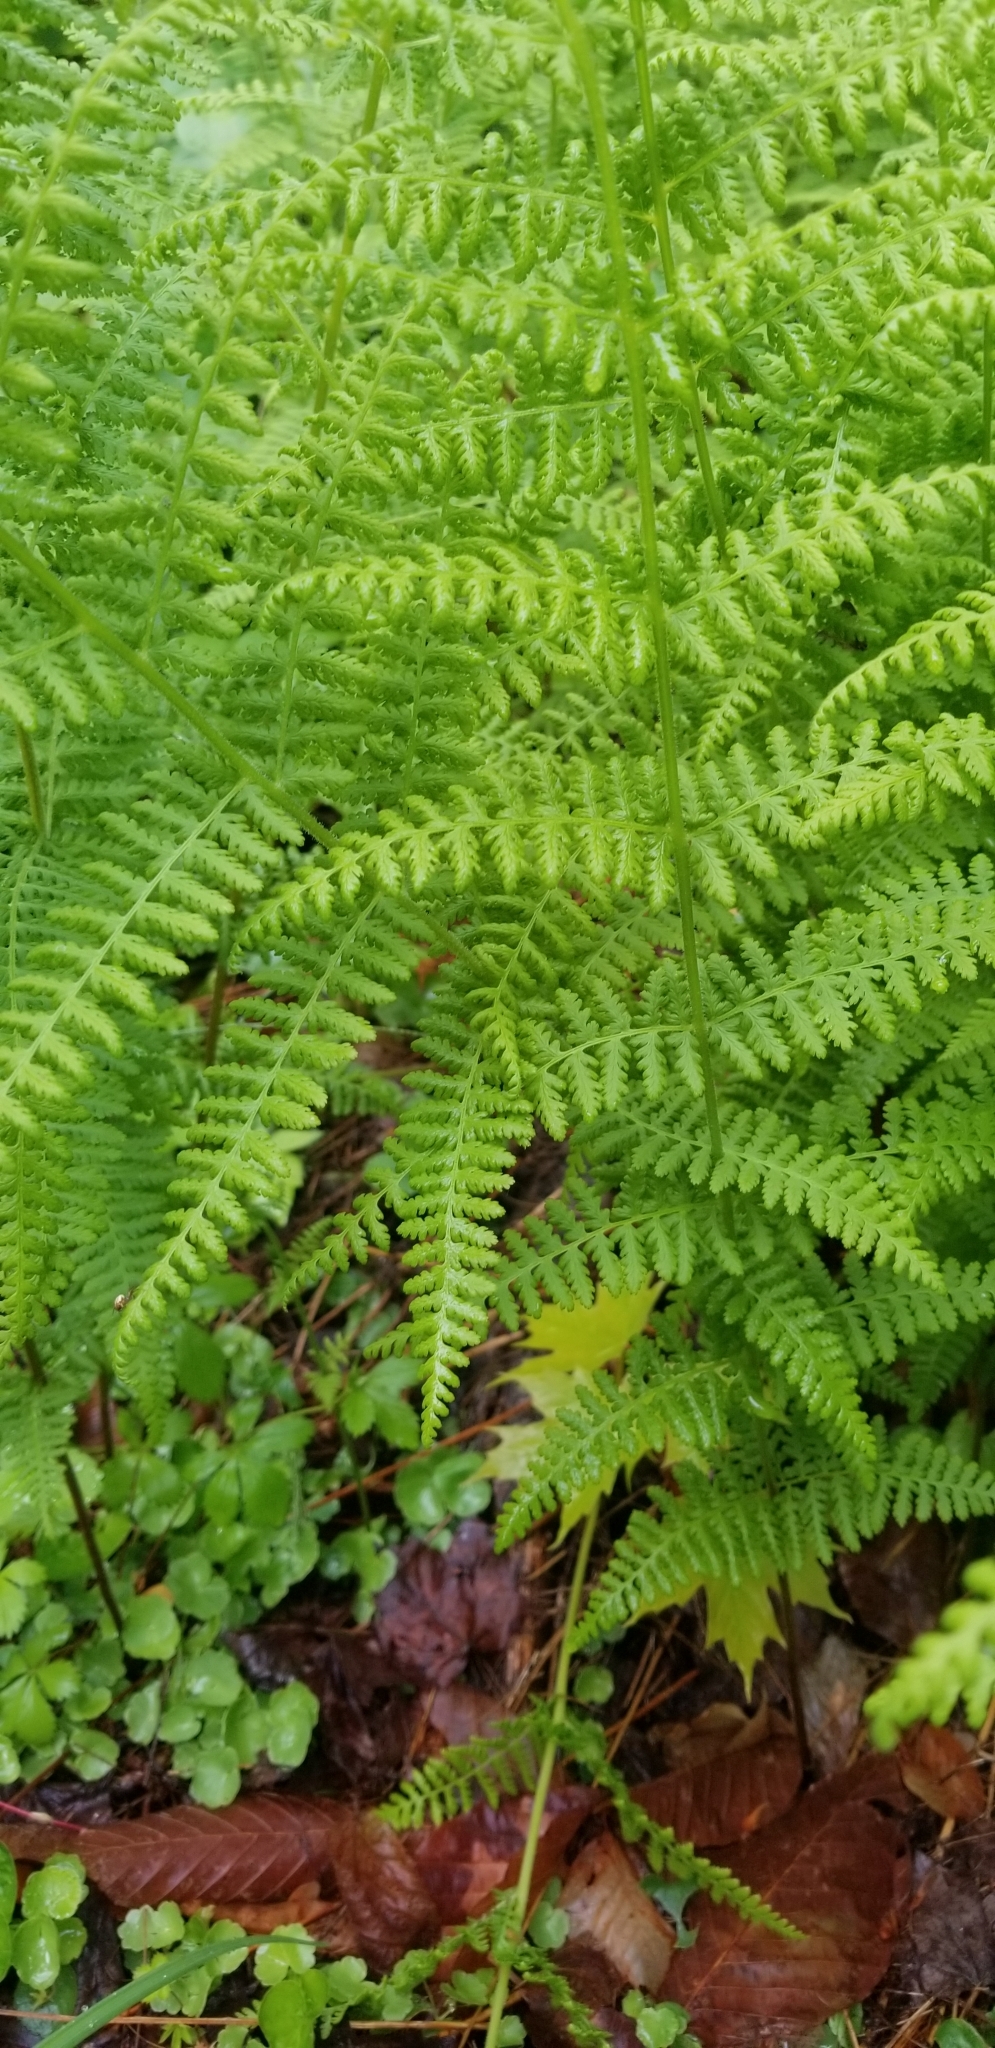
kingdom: Plantae
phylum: Tracheophyta
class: Polypodiopsida
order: Polypodiales
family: Dennstaedtiaceae
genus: Sitobolium
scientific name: Sitobolium punctilobum
